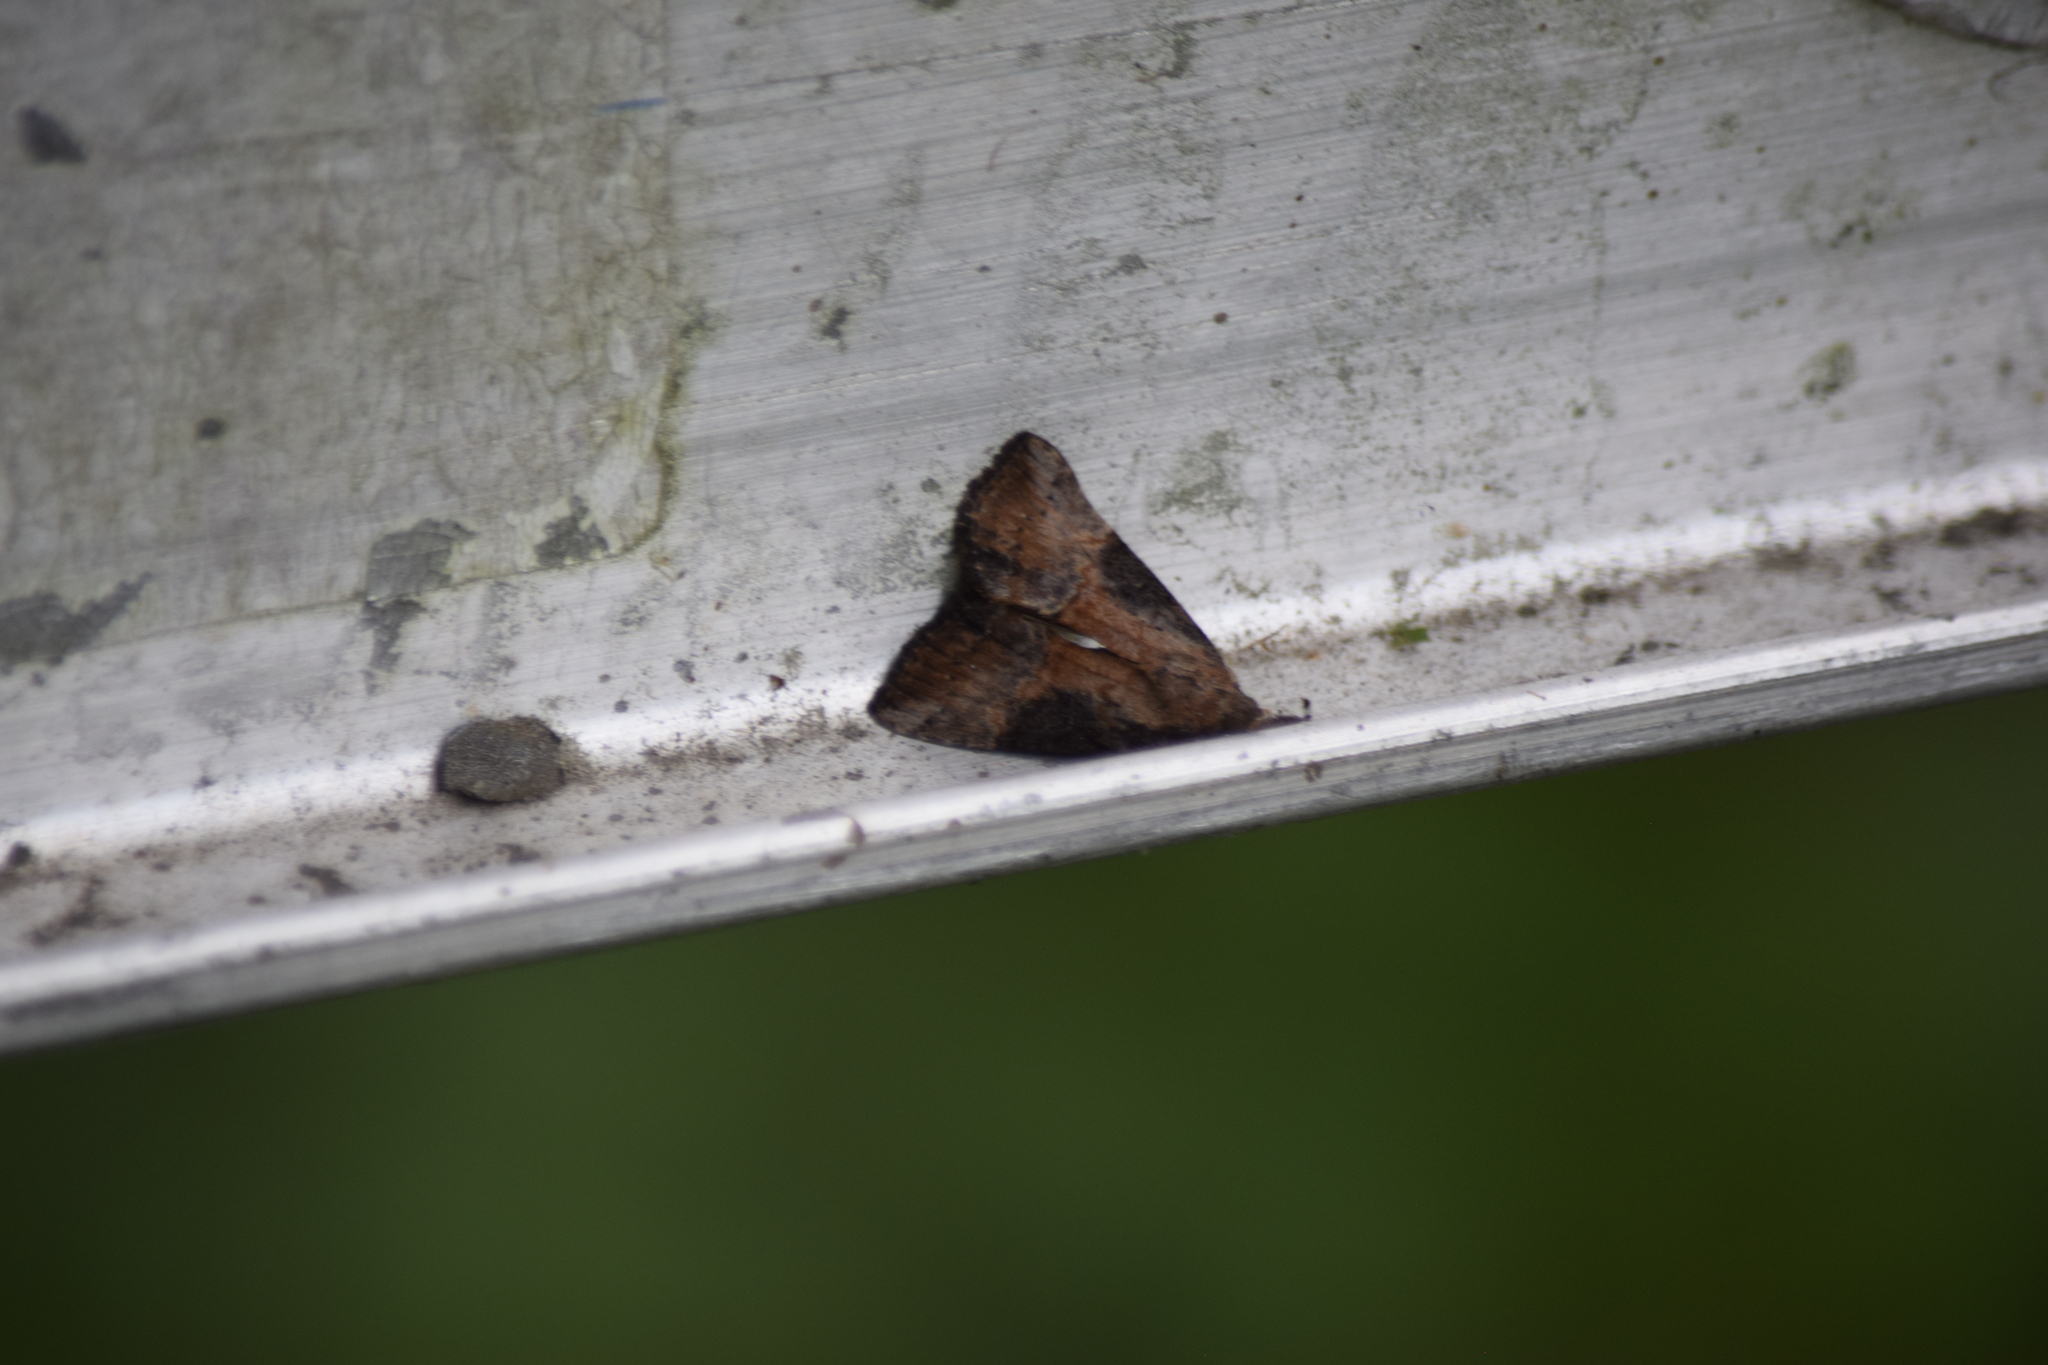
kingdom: Animalia
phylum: Arthropoda
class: Insecta
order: Lepidoptera
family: Erebidae
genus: Hypena
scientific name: Hypena scabra
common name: Green cloverworm
